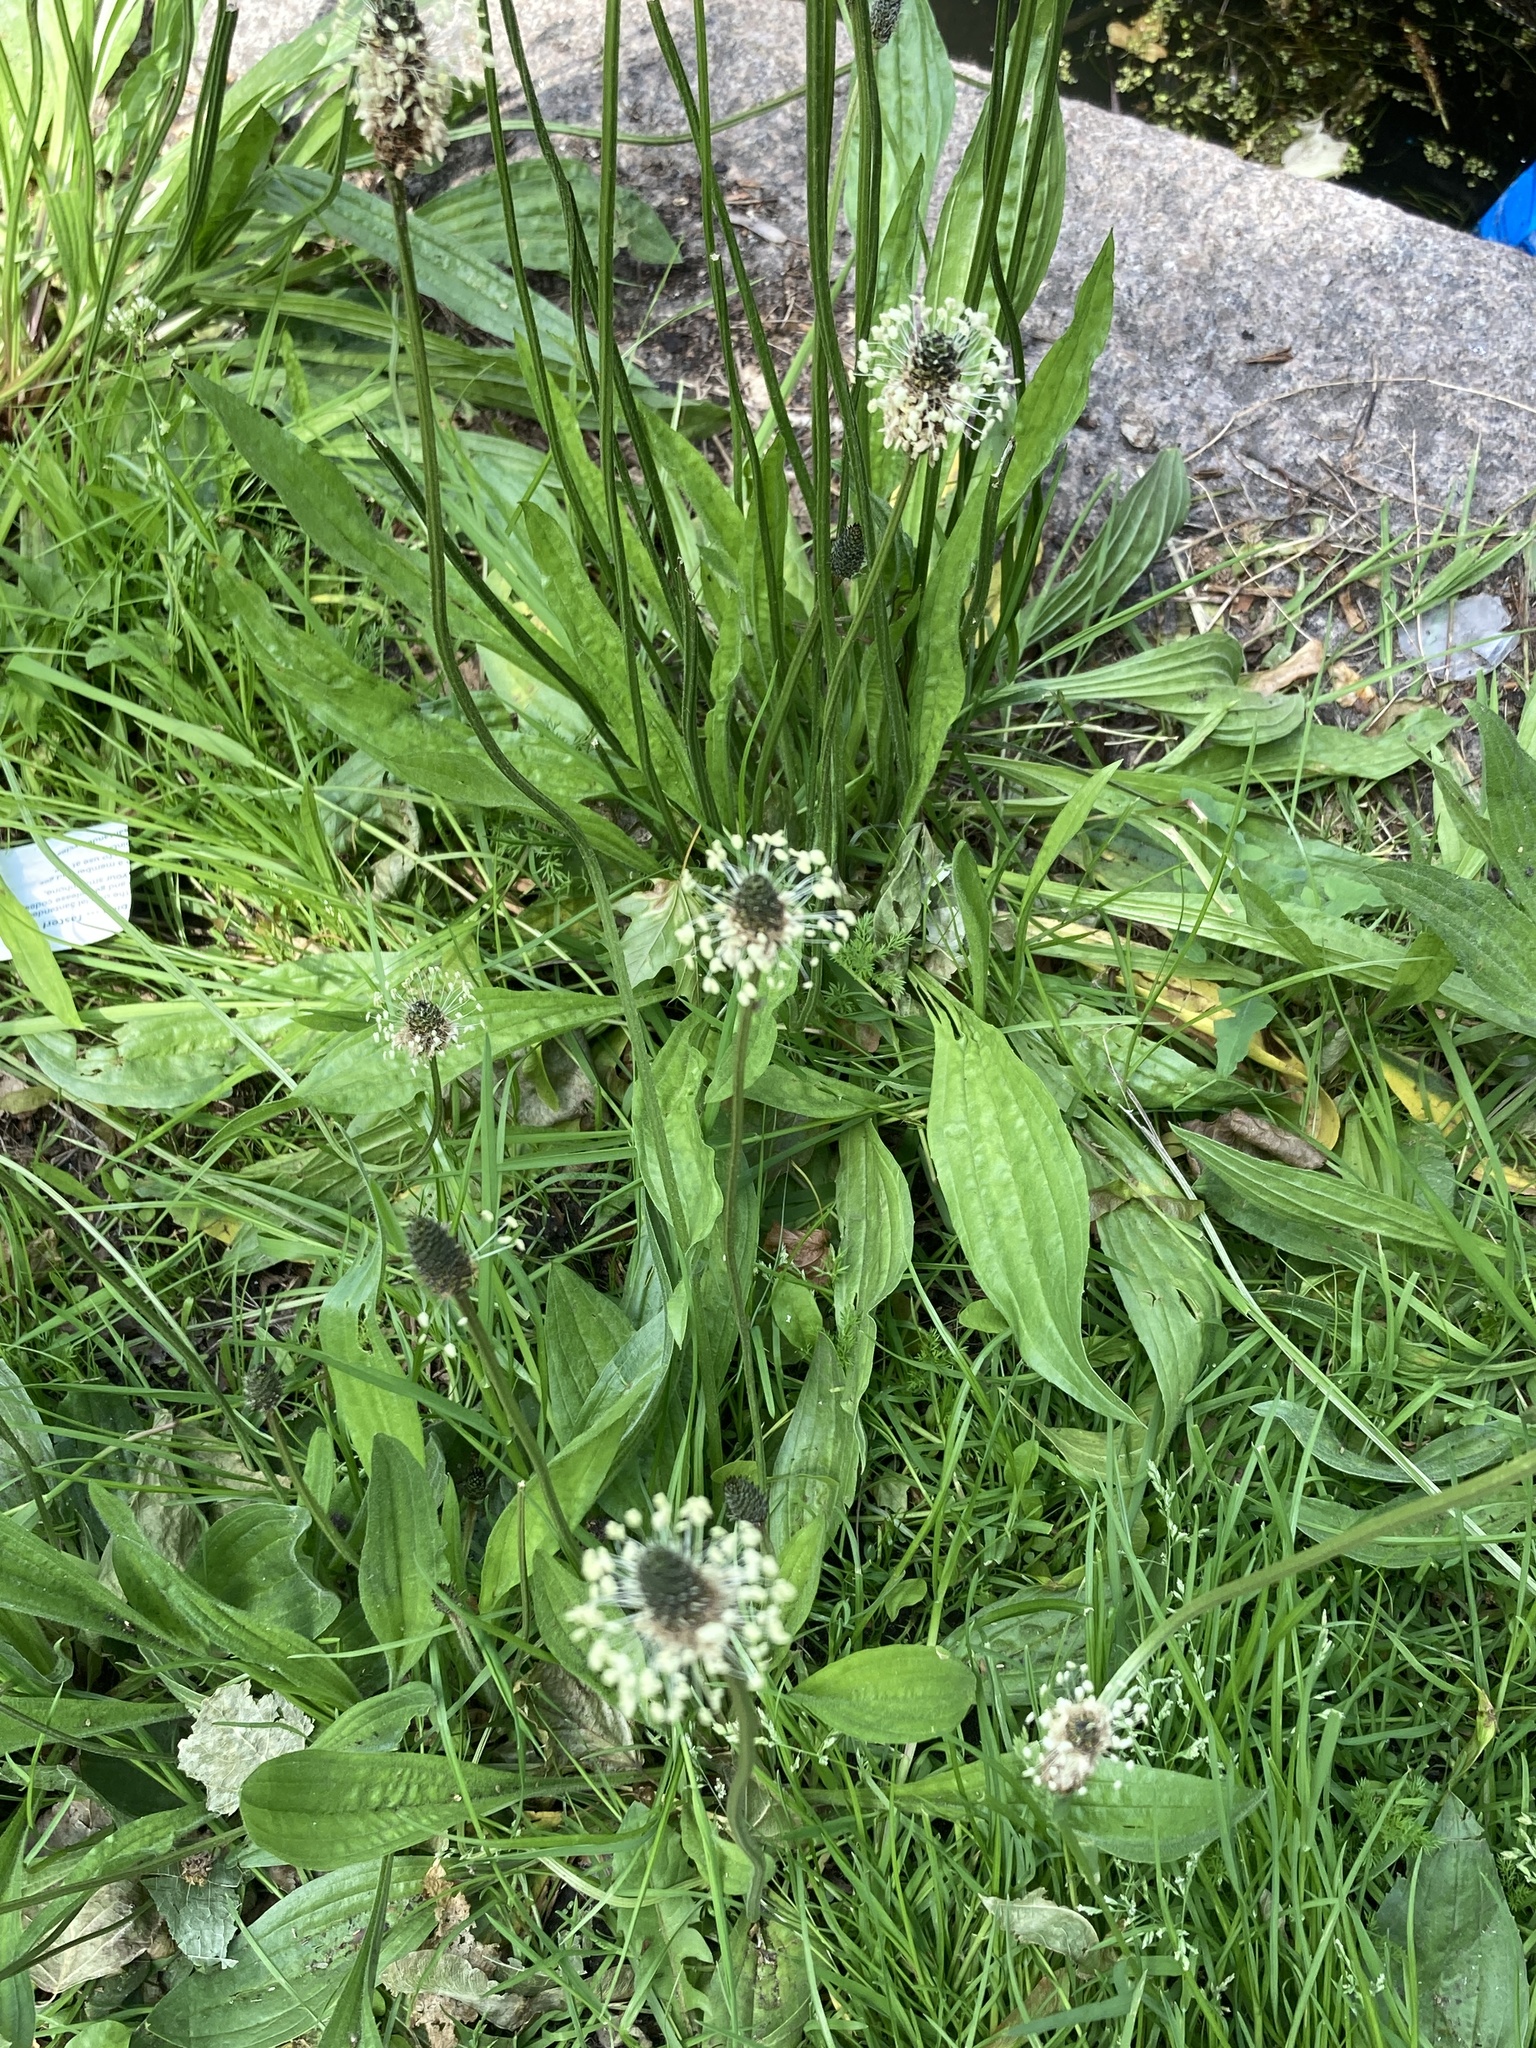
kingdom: Plantae
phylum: Tracheophyta
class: Magnoliopsida
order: Lamiales
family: Plantaginaceae
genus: Plantago
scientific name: Plantago lanceolata
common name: Ribwort plantain
